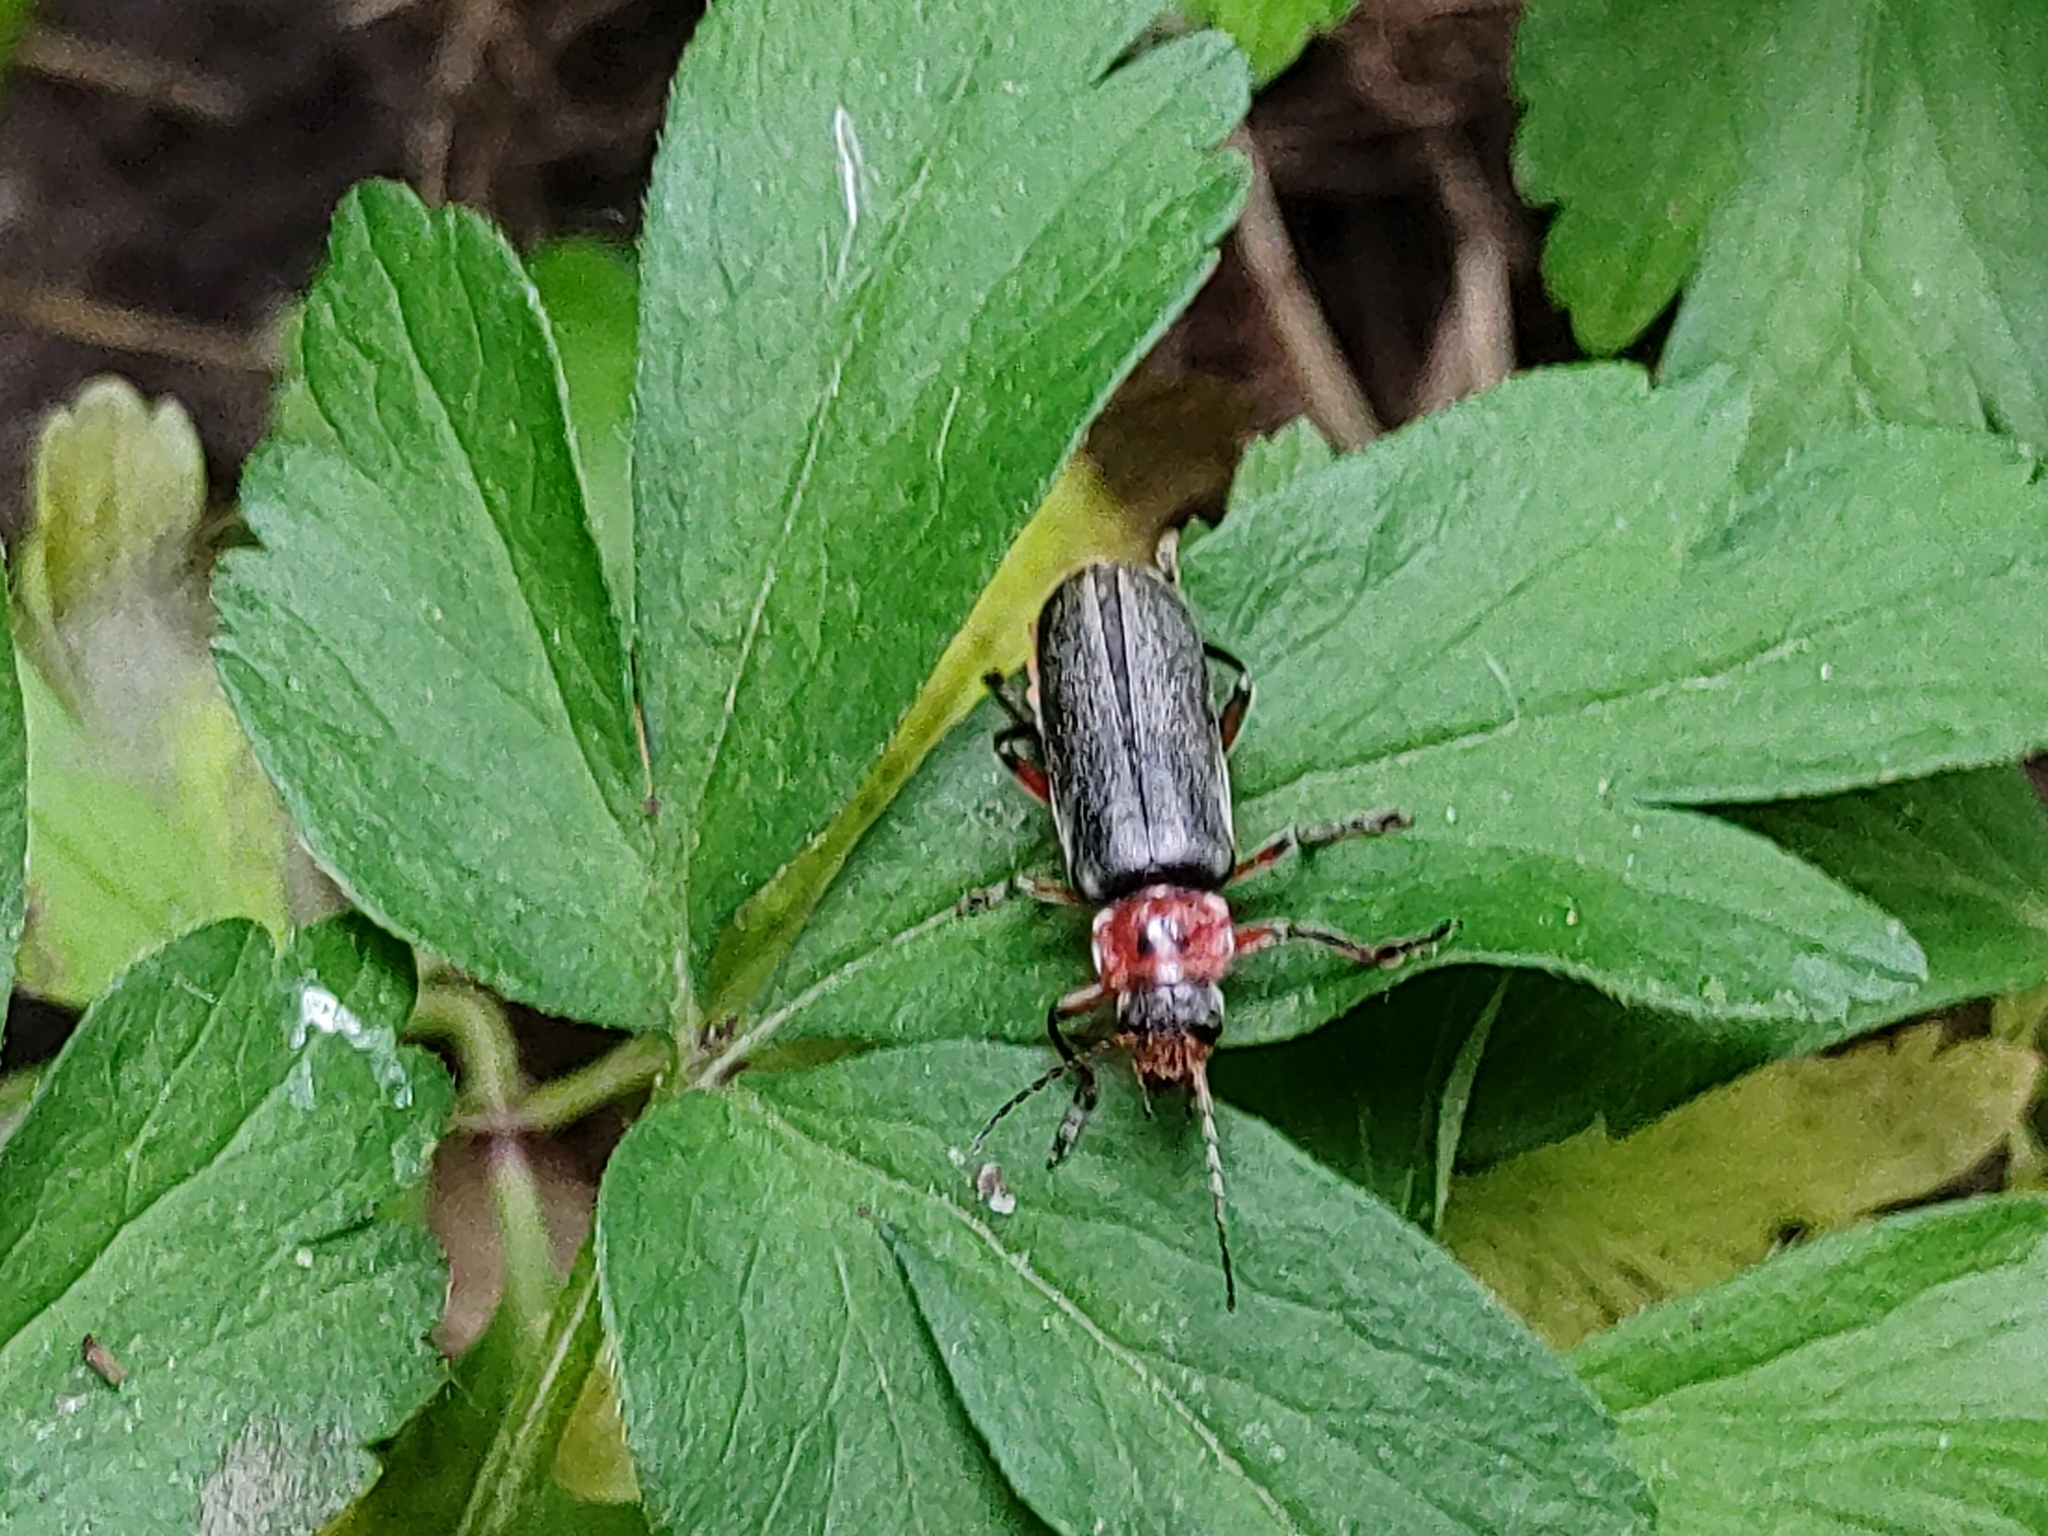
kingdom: Animalia
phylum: Arthropoda
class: Insecta
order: Coleoptera
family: Cantharidae
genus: Cantharis
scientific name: Cantharis rustica
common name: Soldier beetle
